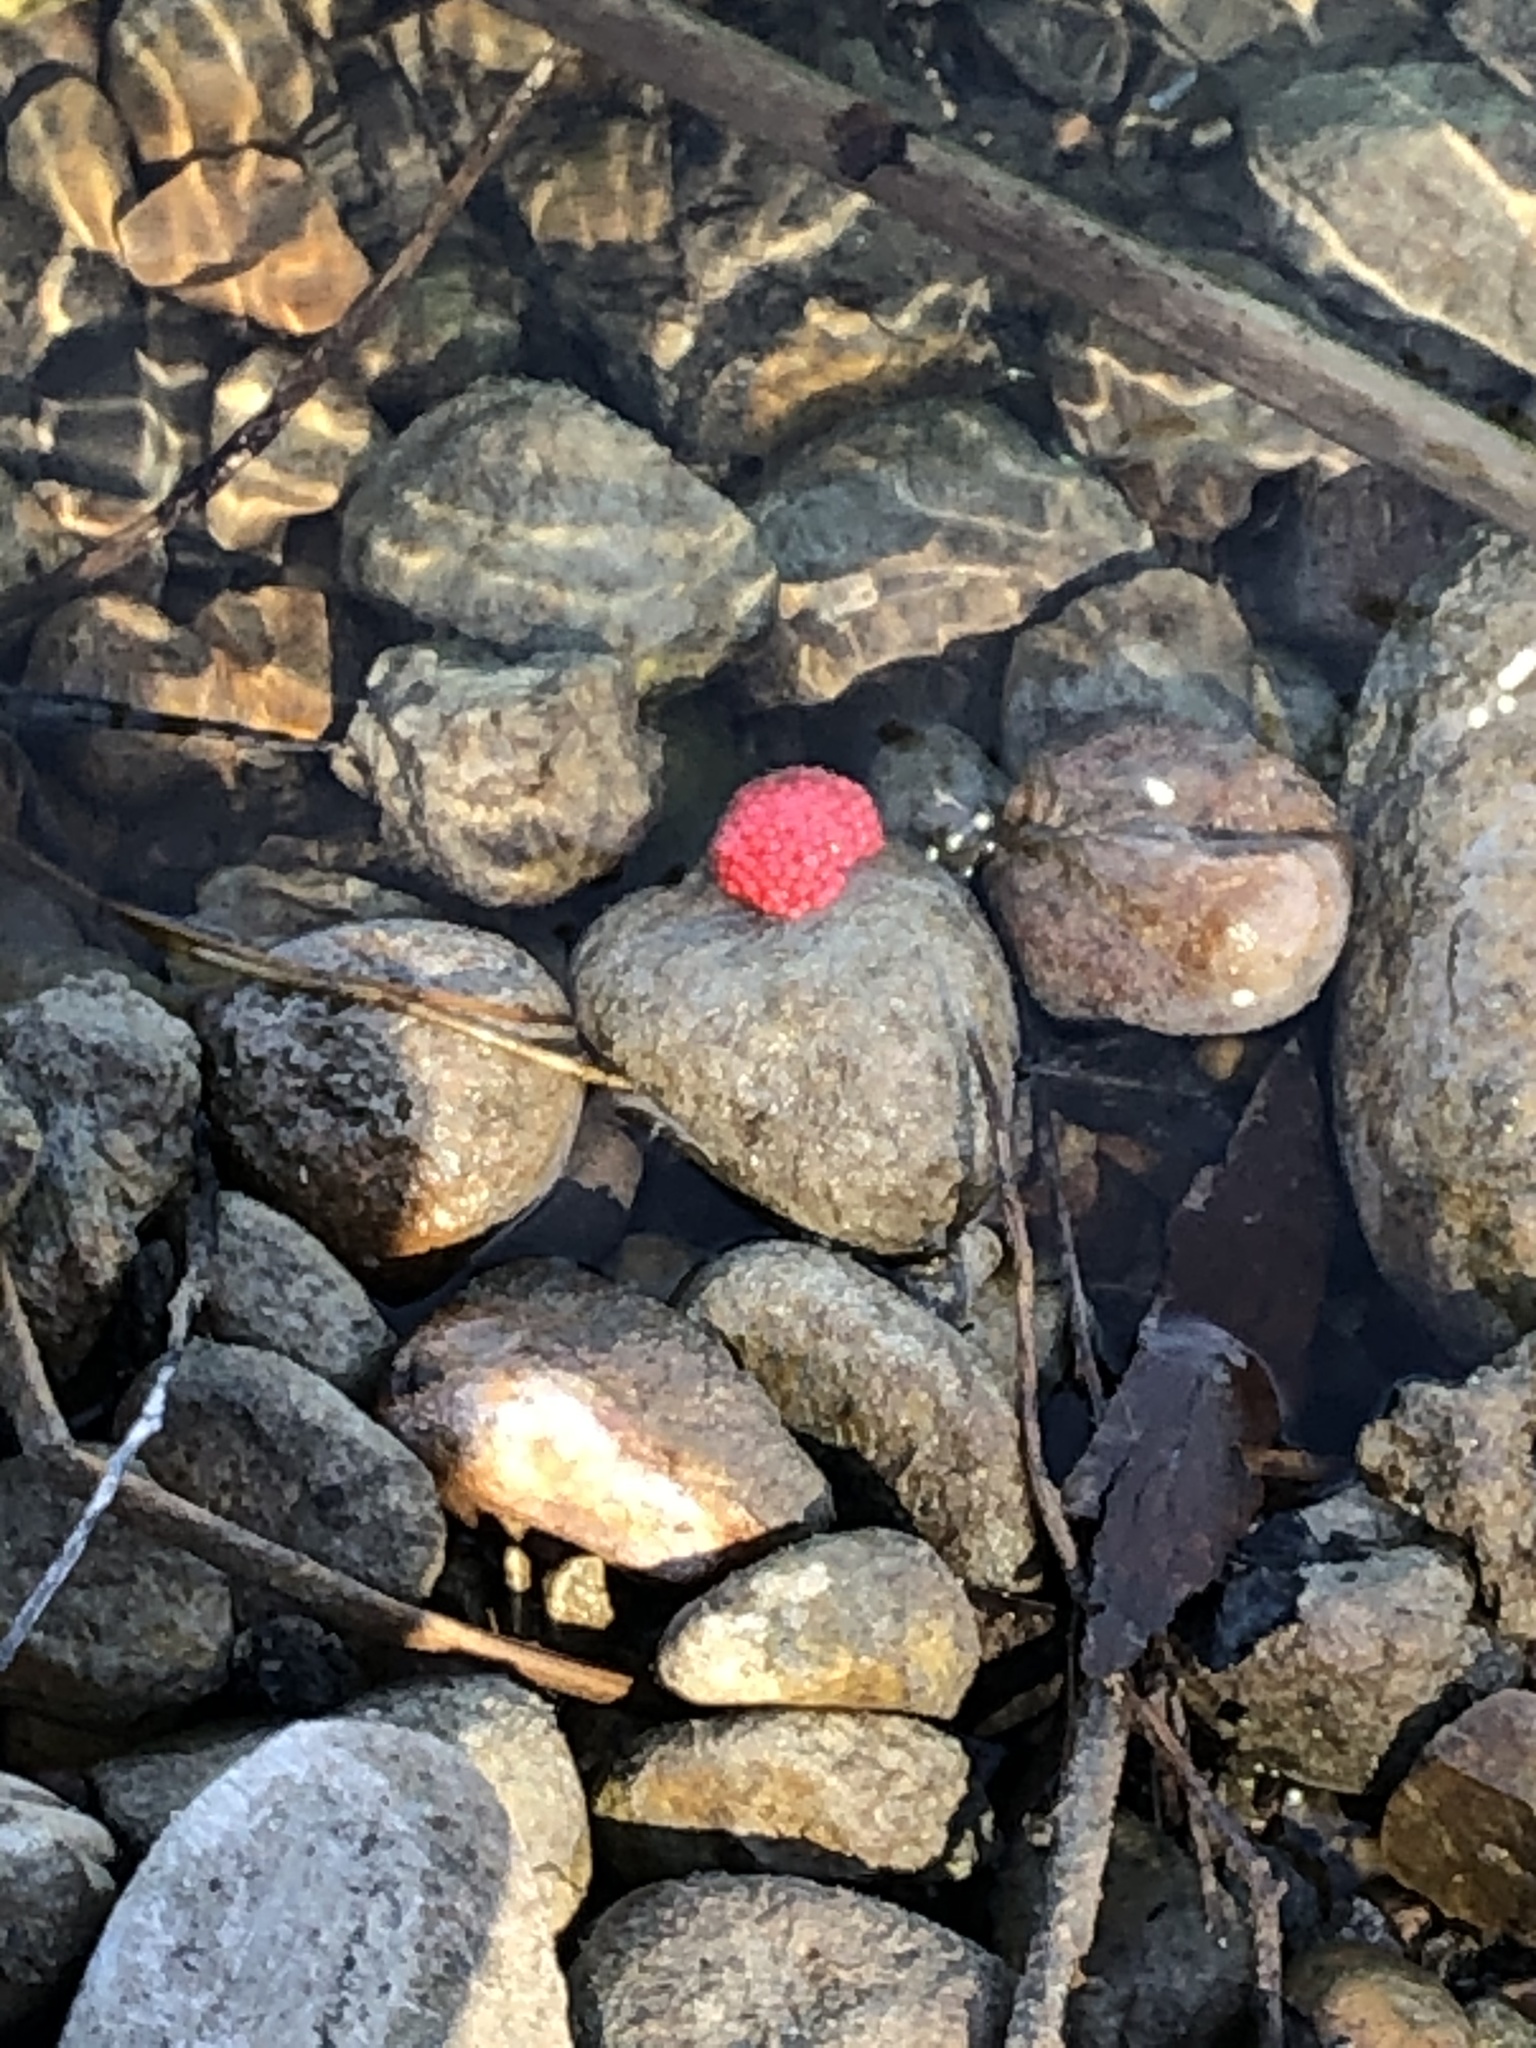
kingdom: Animalia
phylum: Mollusca
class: Gastropoda
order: Architaenioglossa
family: Ampullariidae
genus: Pomacea
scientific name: Pomacea canaliculata
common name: Channeled applesnail
